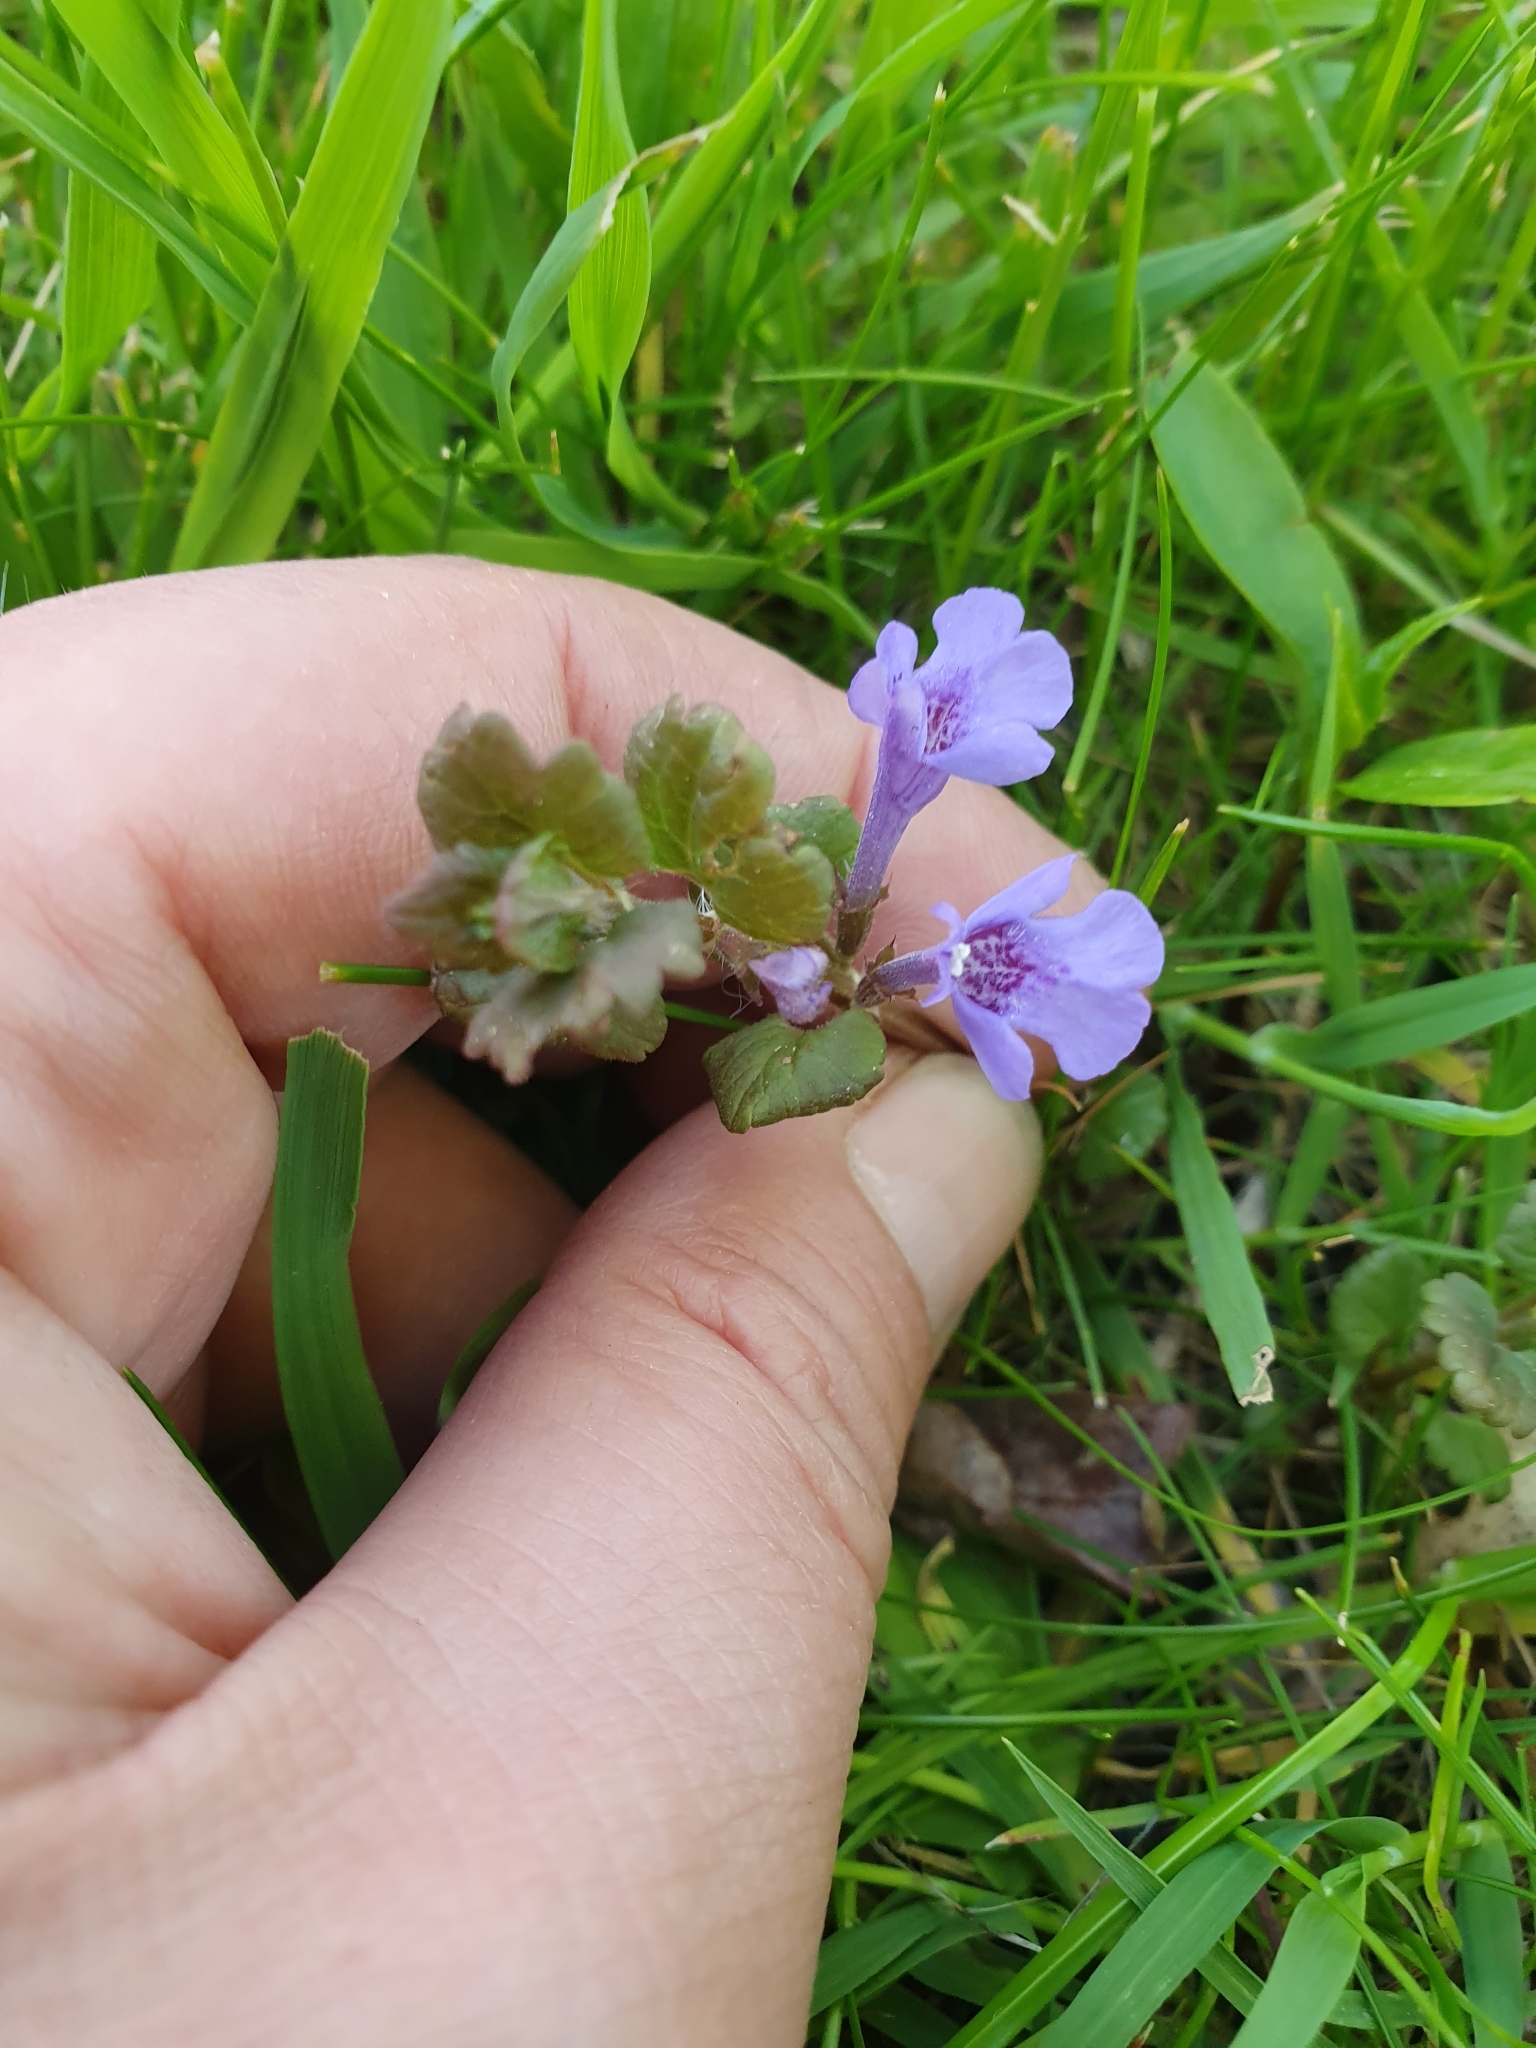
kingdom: Plantae
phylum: Tracheophyta
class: Magnoliopsida
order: Lamiales
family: Lamiaceae
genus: Glechoma
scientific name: Glechoma hederacea
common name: Ground ivy
